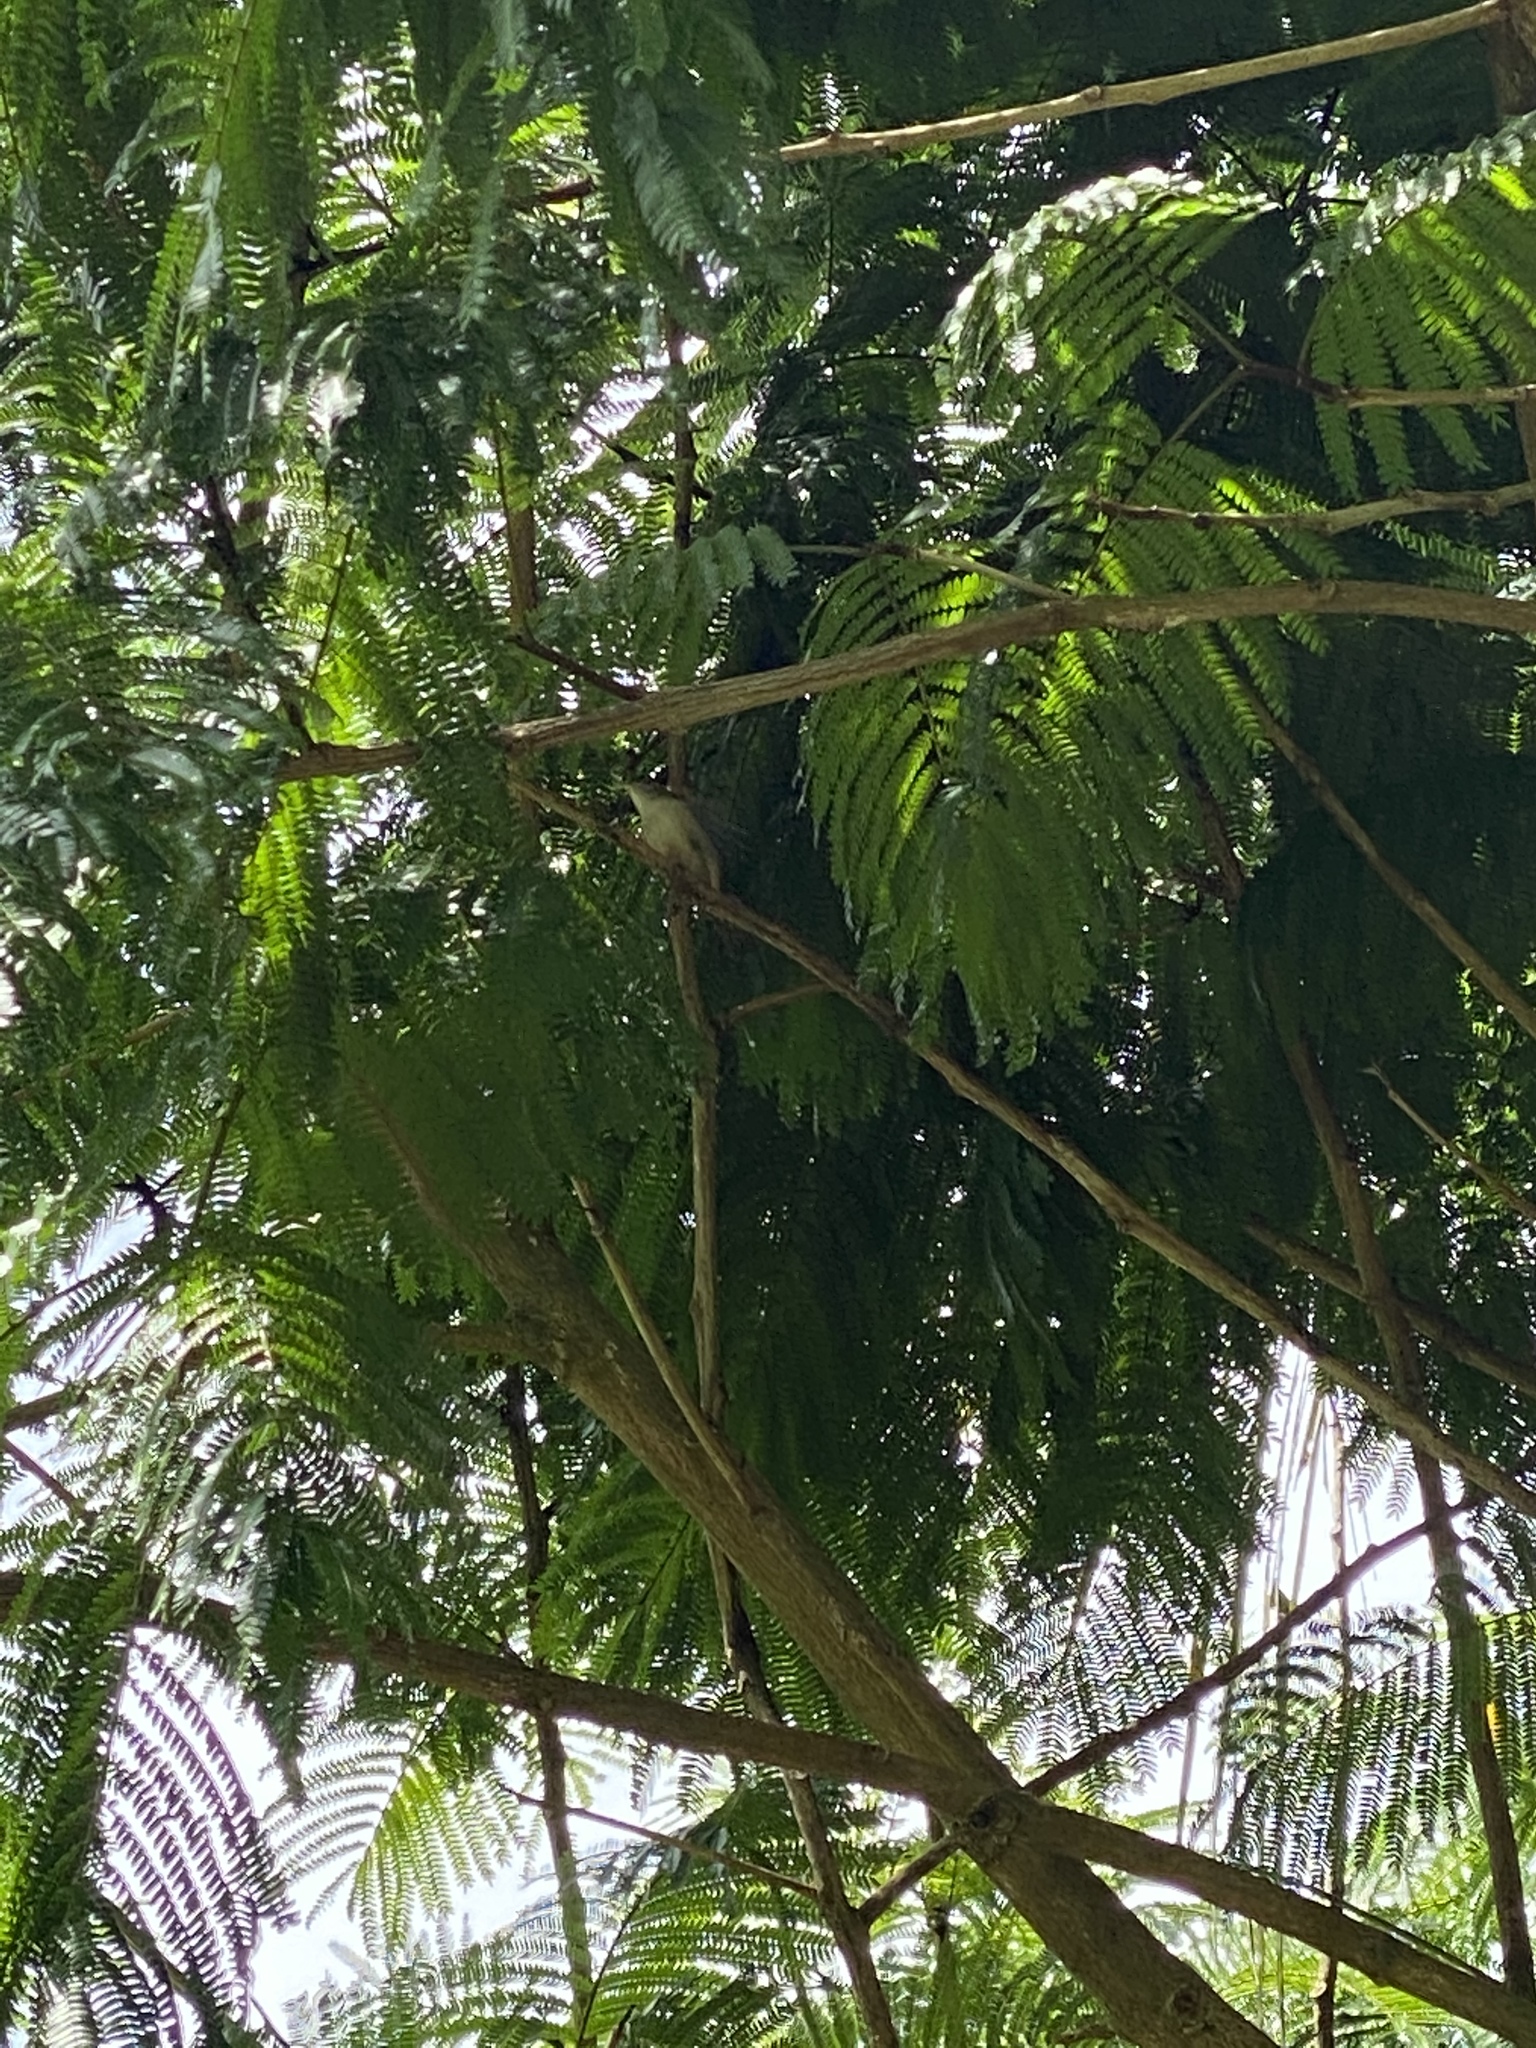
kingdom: Animalia
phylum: Chordata
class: Aves
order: Passeriformes
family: Troglodytidae
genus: Troglodytes
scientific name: Troglodytes aedon
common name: House wren
